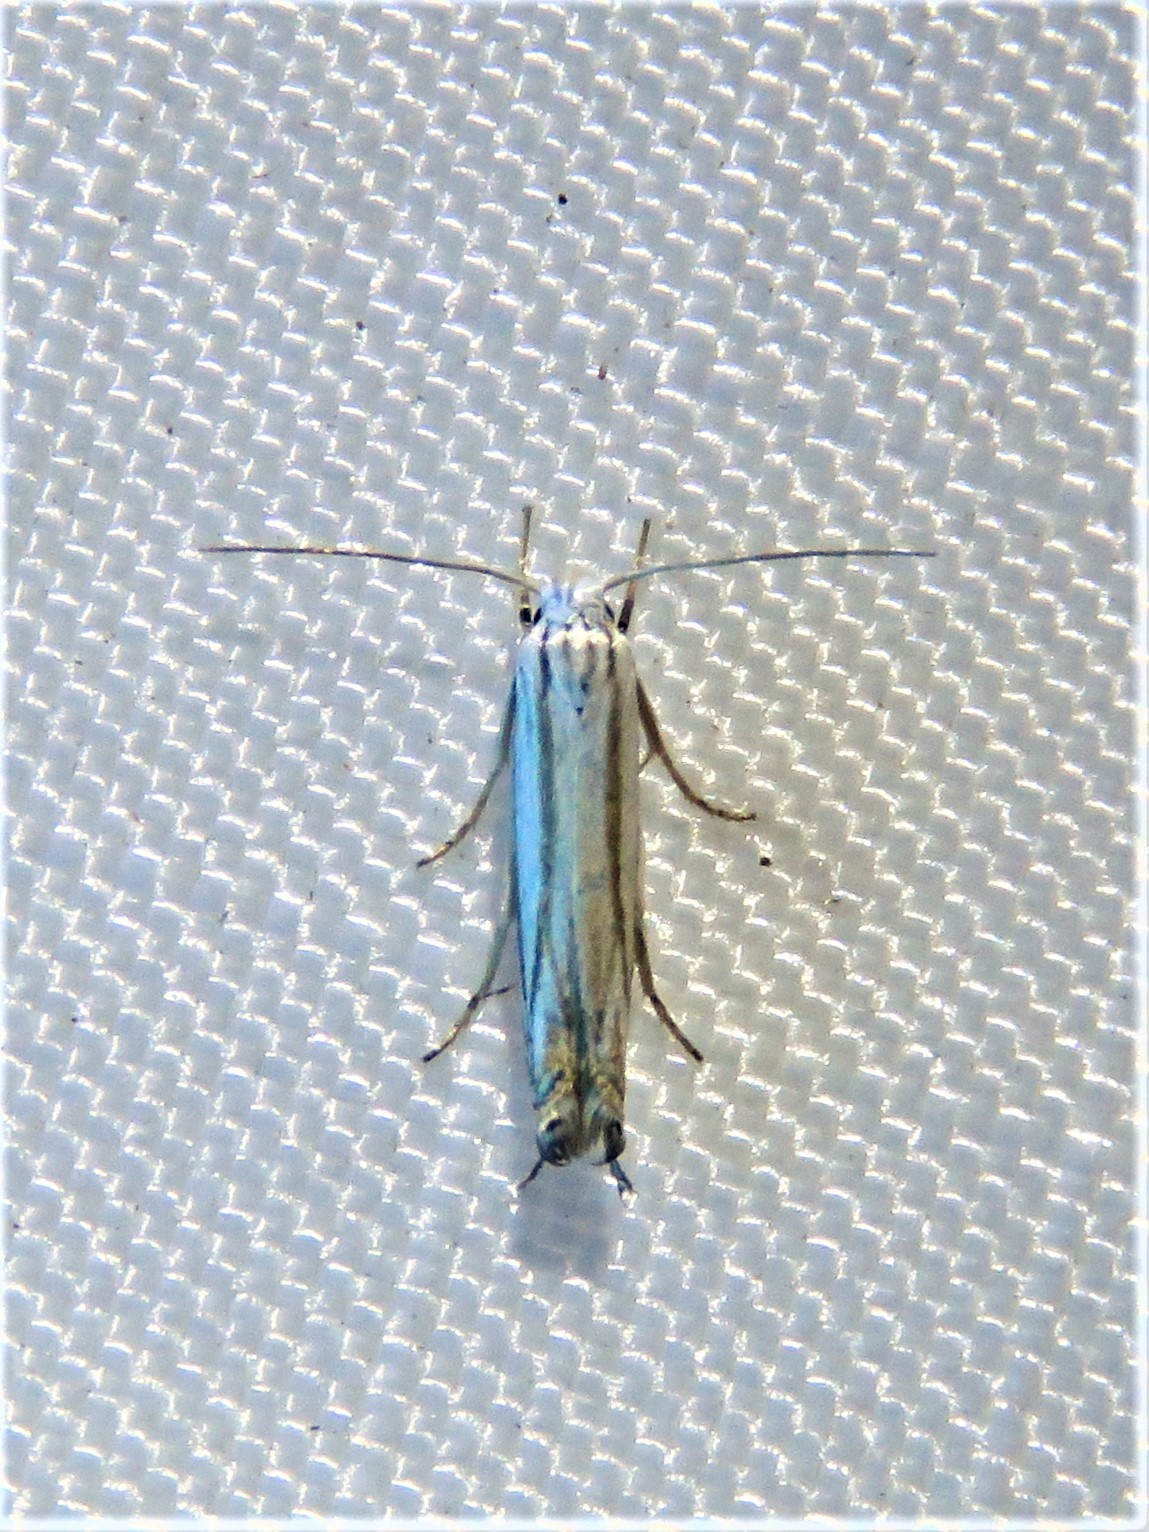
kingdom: Animalia
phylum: Arthropoda
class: Insecta
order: Lepidoptera
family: Gelechiidae
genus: Polyhymno
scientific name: Polyhymno luteostrigella
